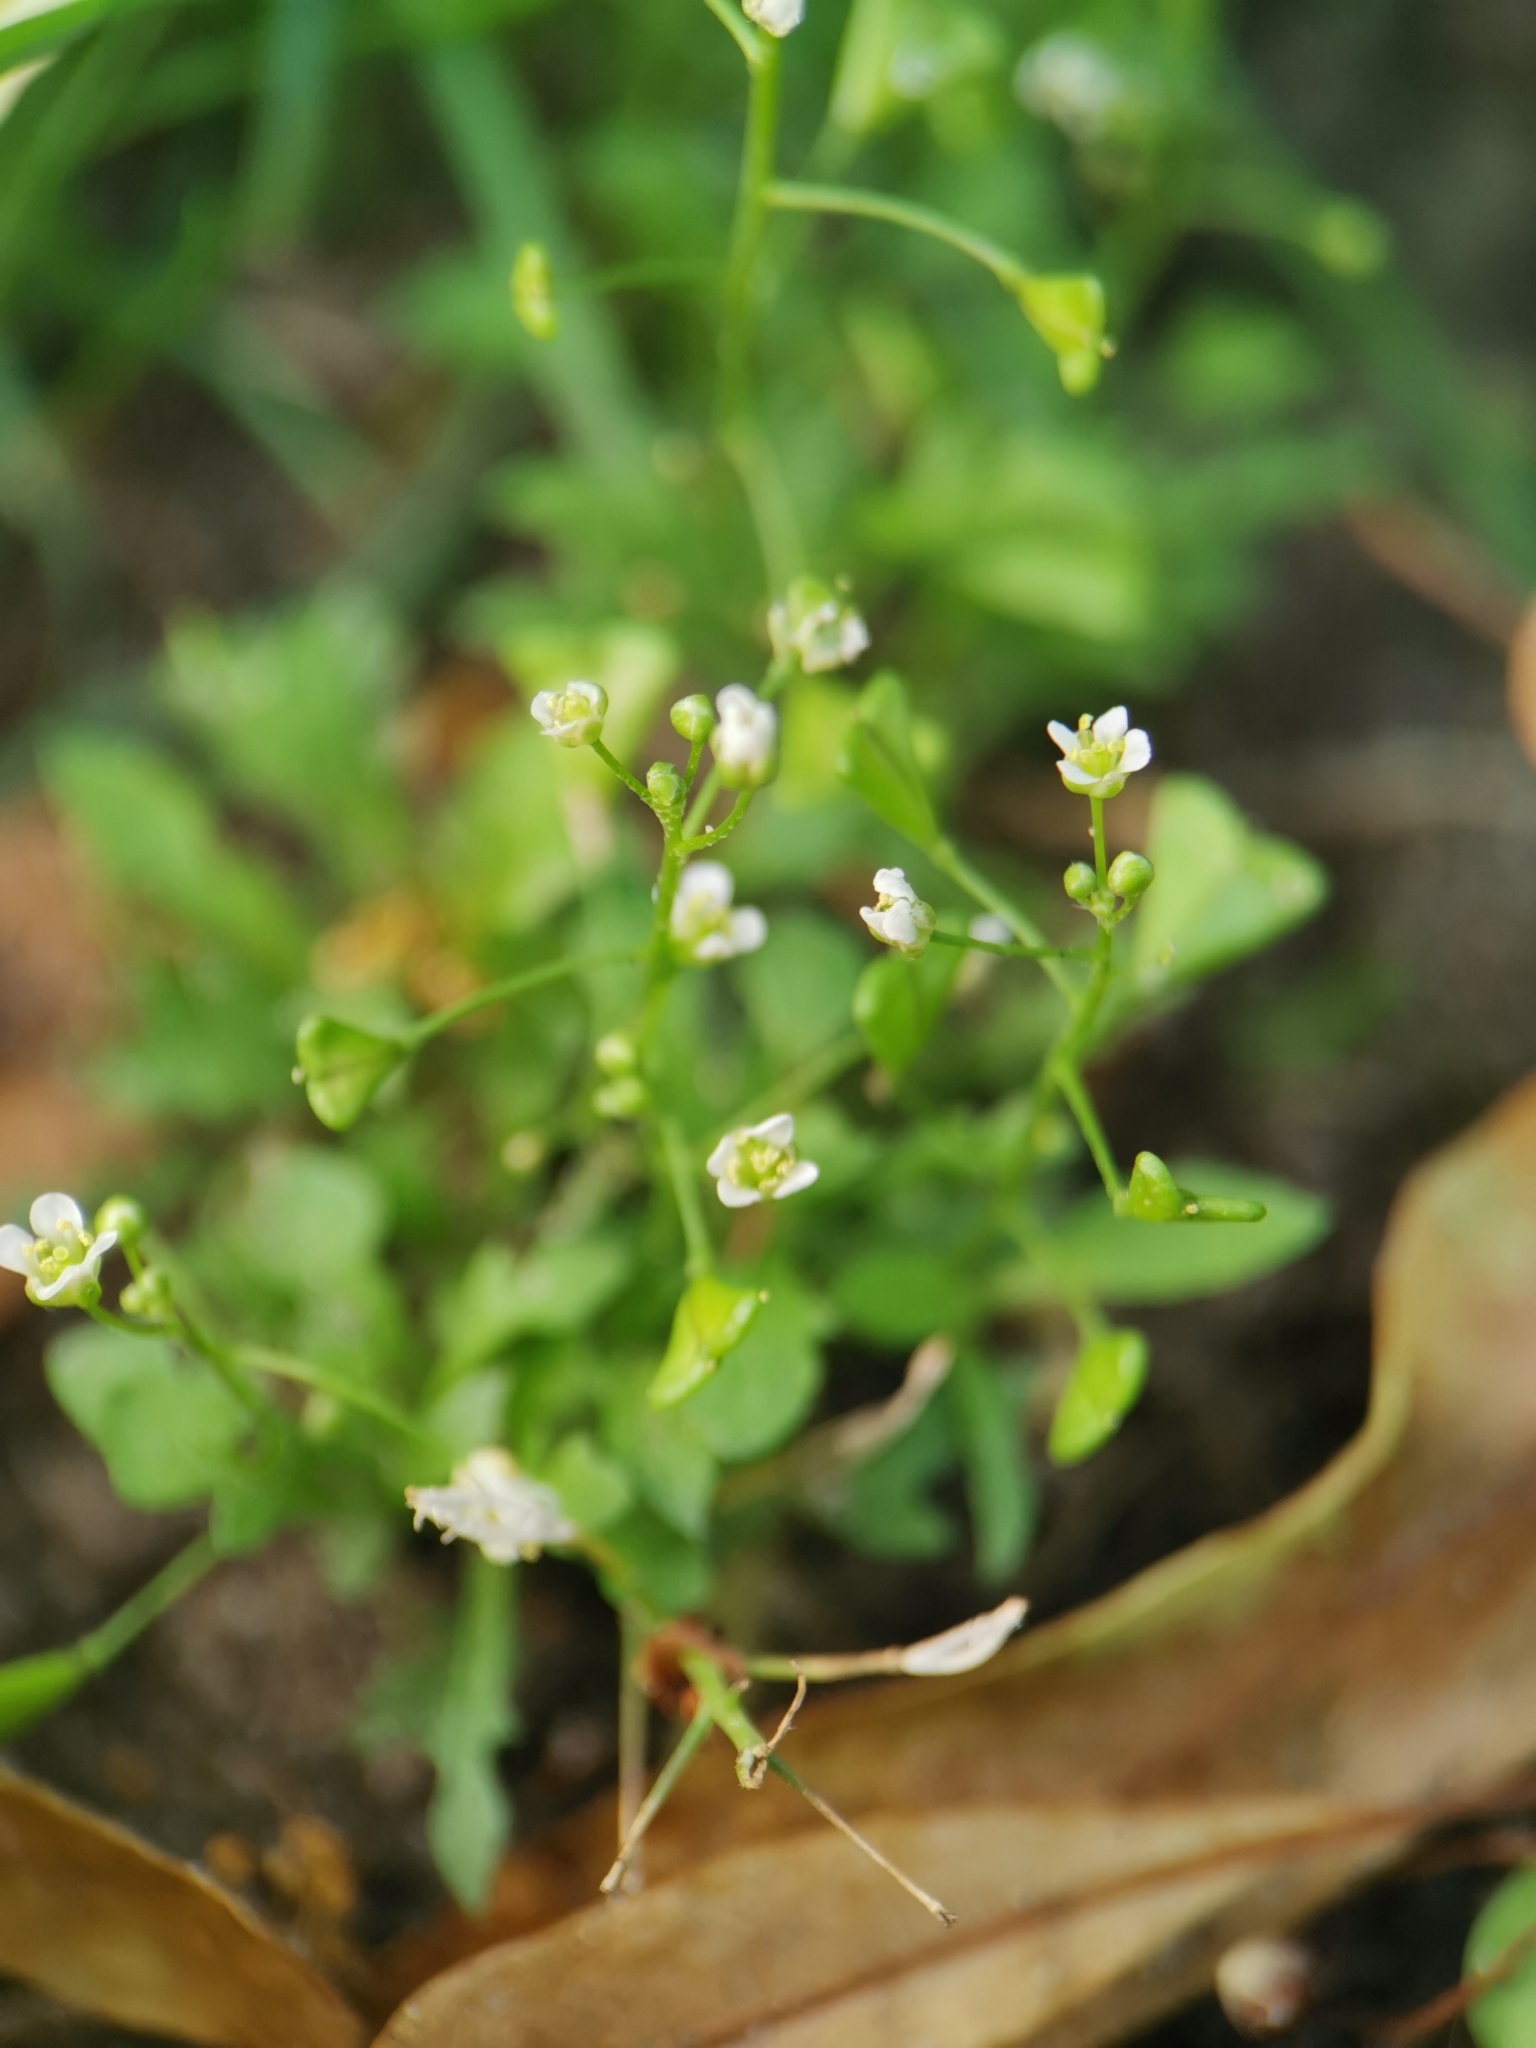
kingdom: Plantae
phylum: Tracheophyta
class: Magnoliopsida
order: Brassicales
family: Brassicaceae
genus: Capsella
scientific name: Capsella bursa-pastoris
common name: Shepherd's purse
